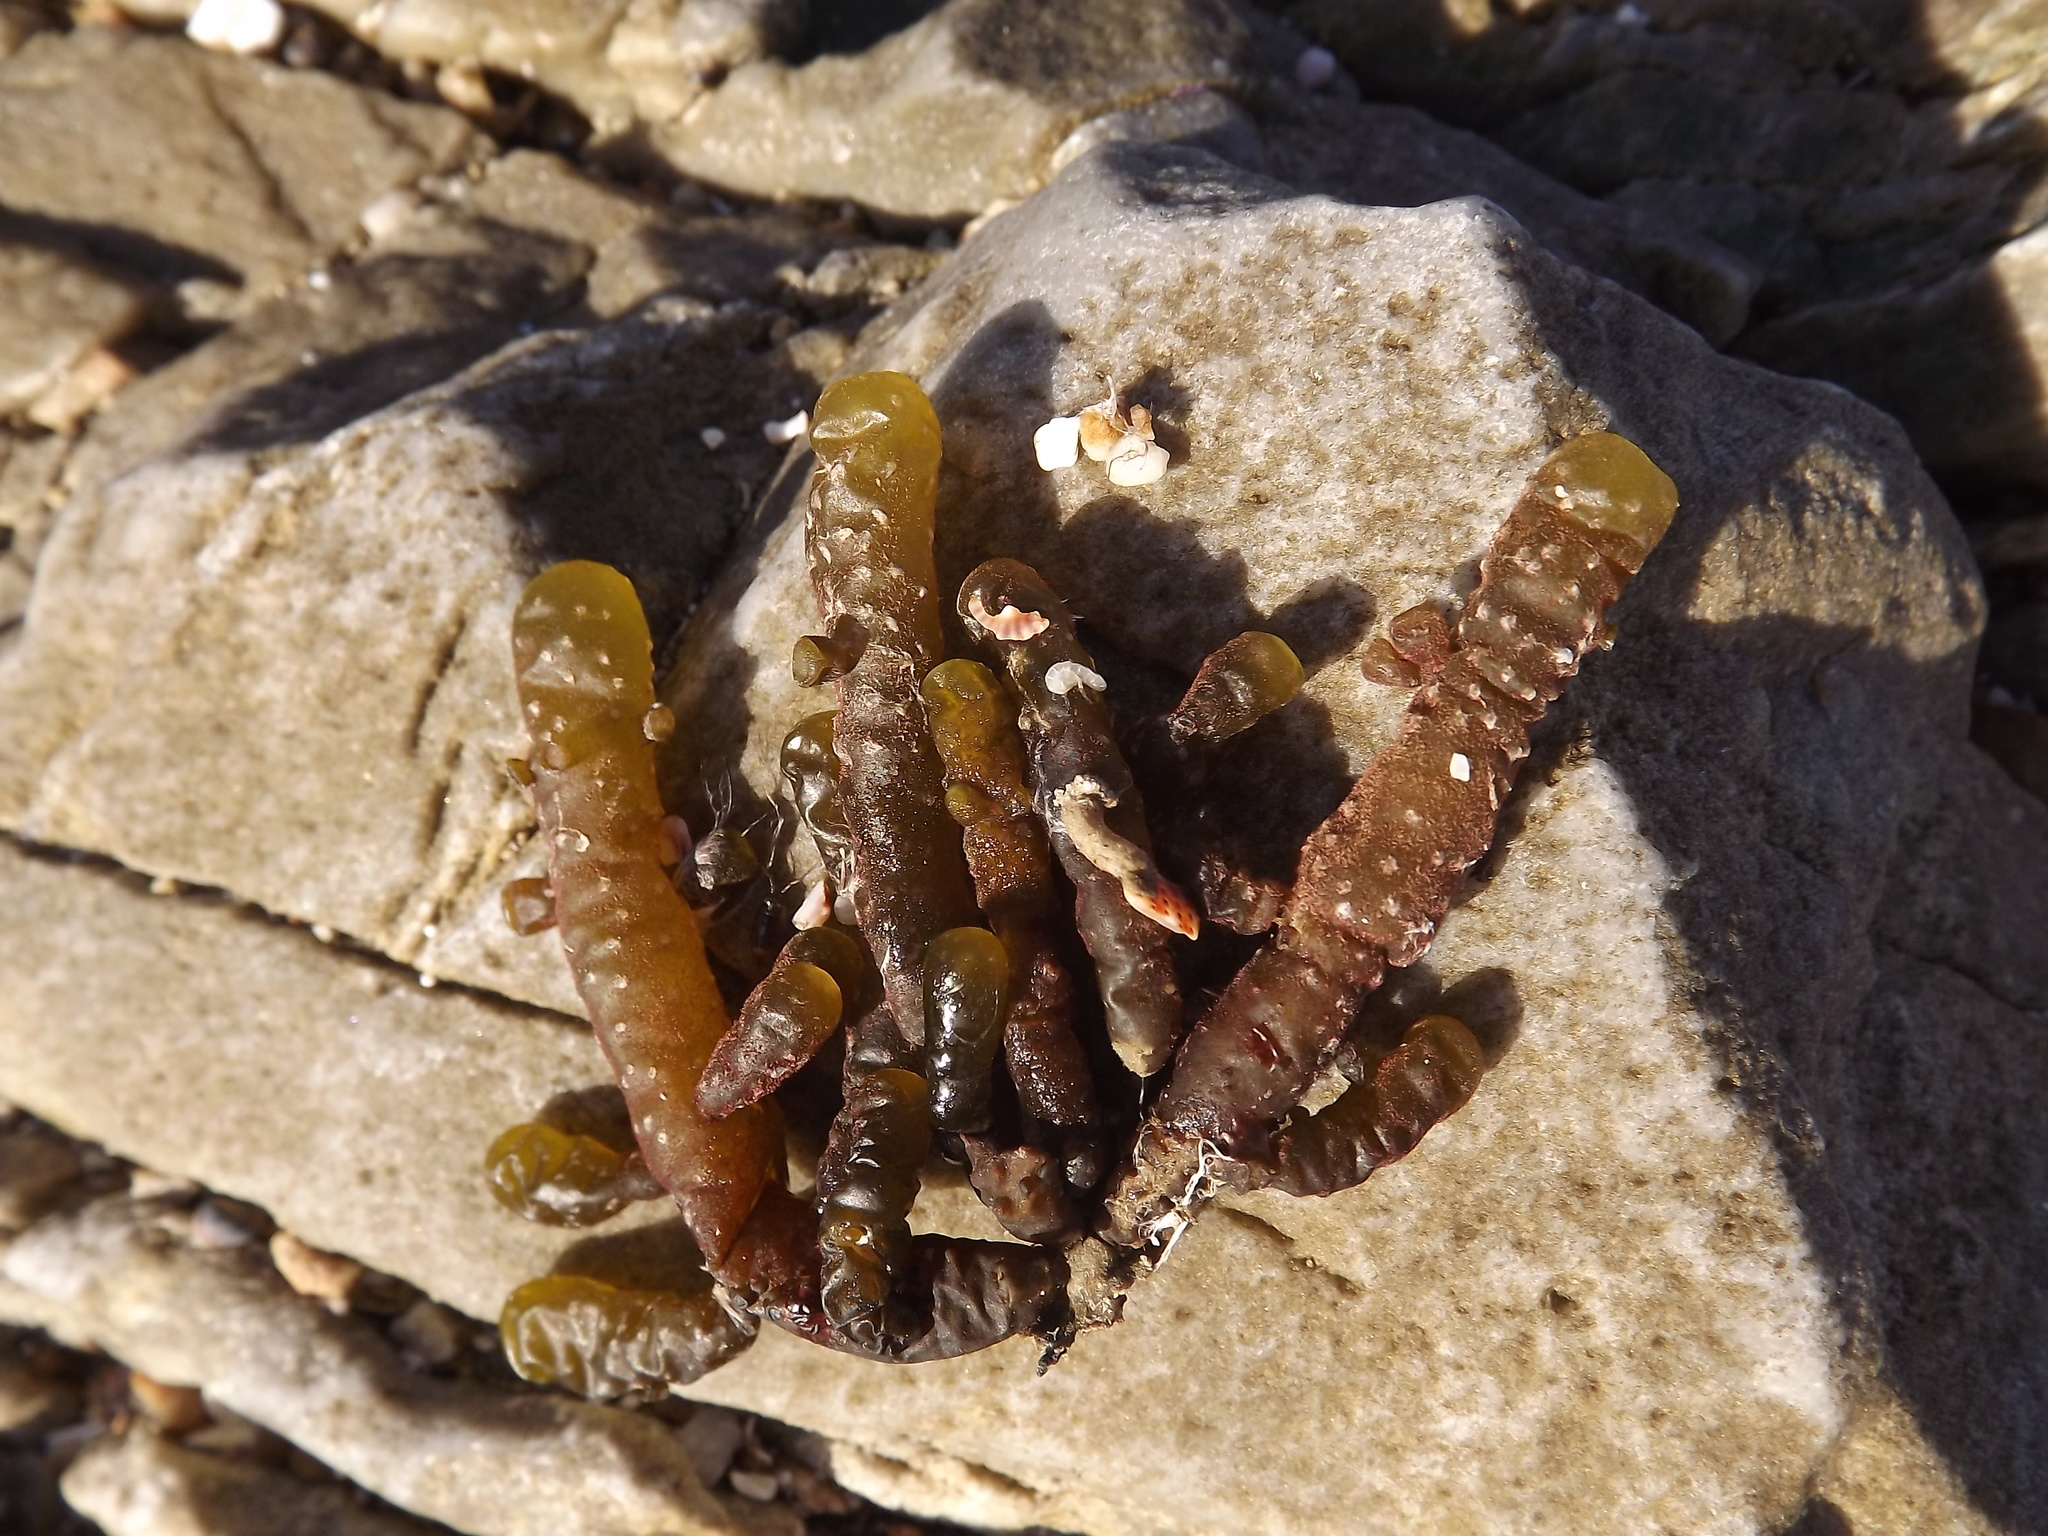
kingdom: Chromista
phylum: Ochrophyta
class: Phaeophyceae
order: Scytothamnales
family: Splachnidiaceae
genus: Splachnidium
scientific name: Splachnidium rugosum
